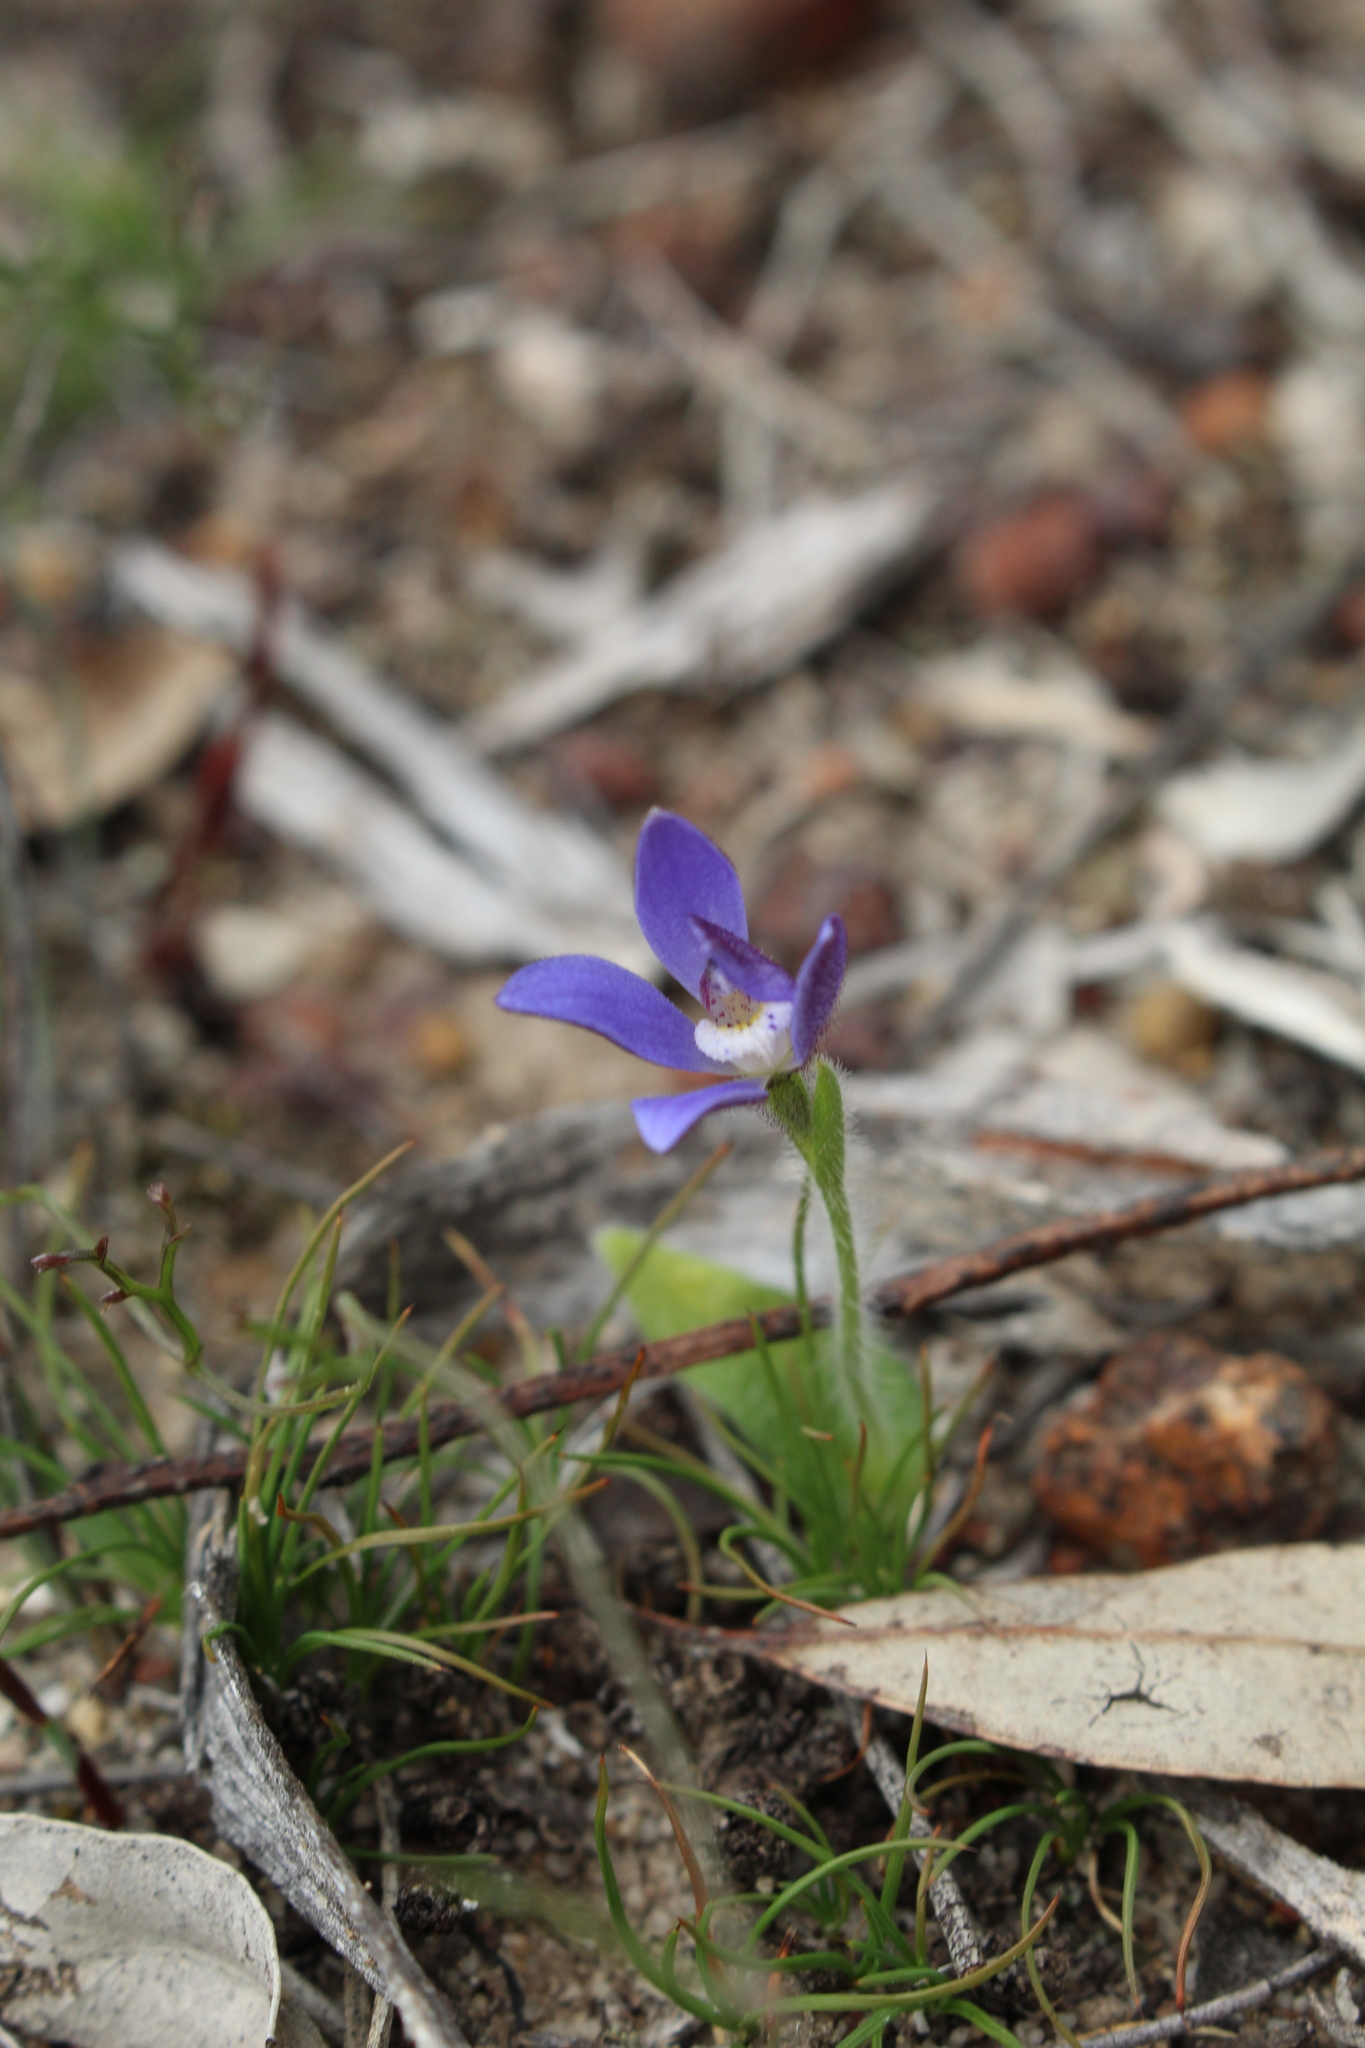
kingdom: Plantae
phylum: Tracheophyta
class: Liliopsida
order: Asparagales
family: Orchidaceae
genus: Caladenia
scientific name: Caladenia gemmata
